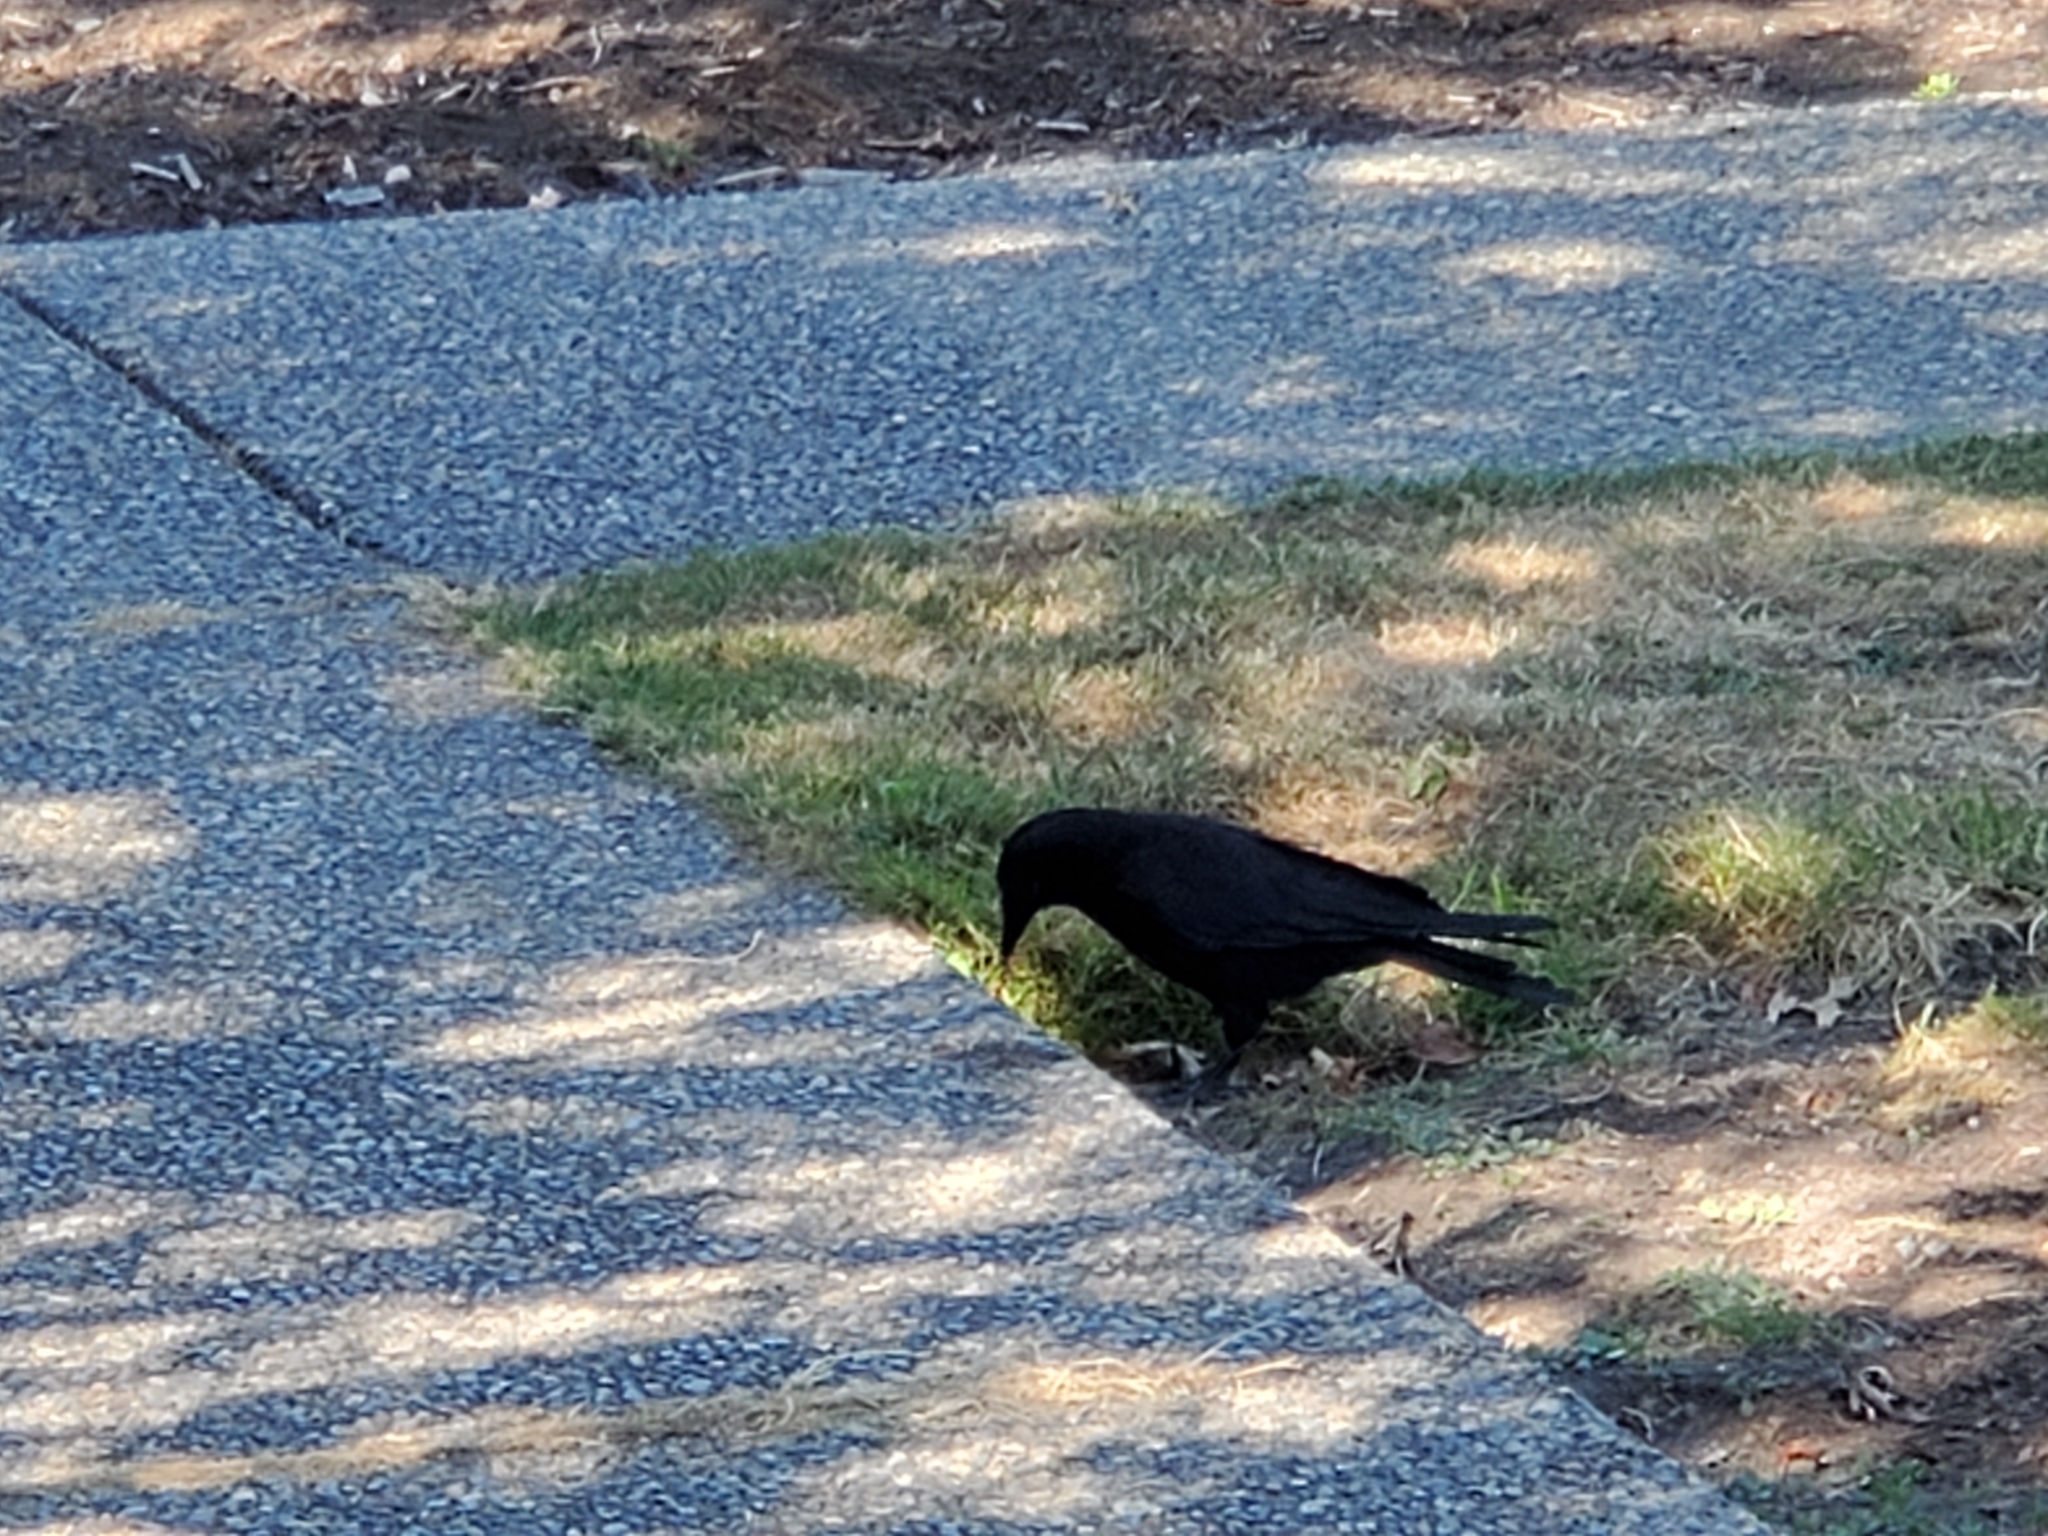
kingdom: Animalia
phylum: Chordata
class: Aves
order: Passeriformes
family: Corvidae
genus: Corvus
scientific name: Corvus brachyrhynchos
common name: American crow
